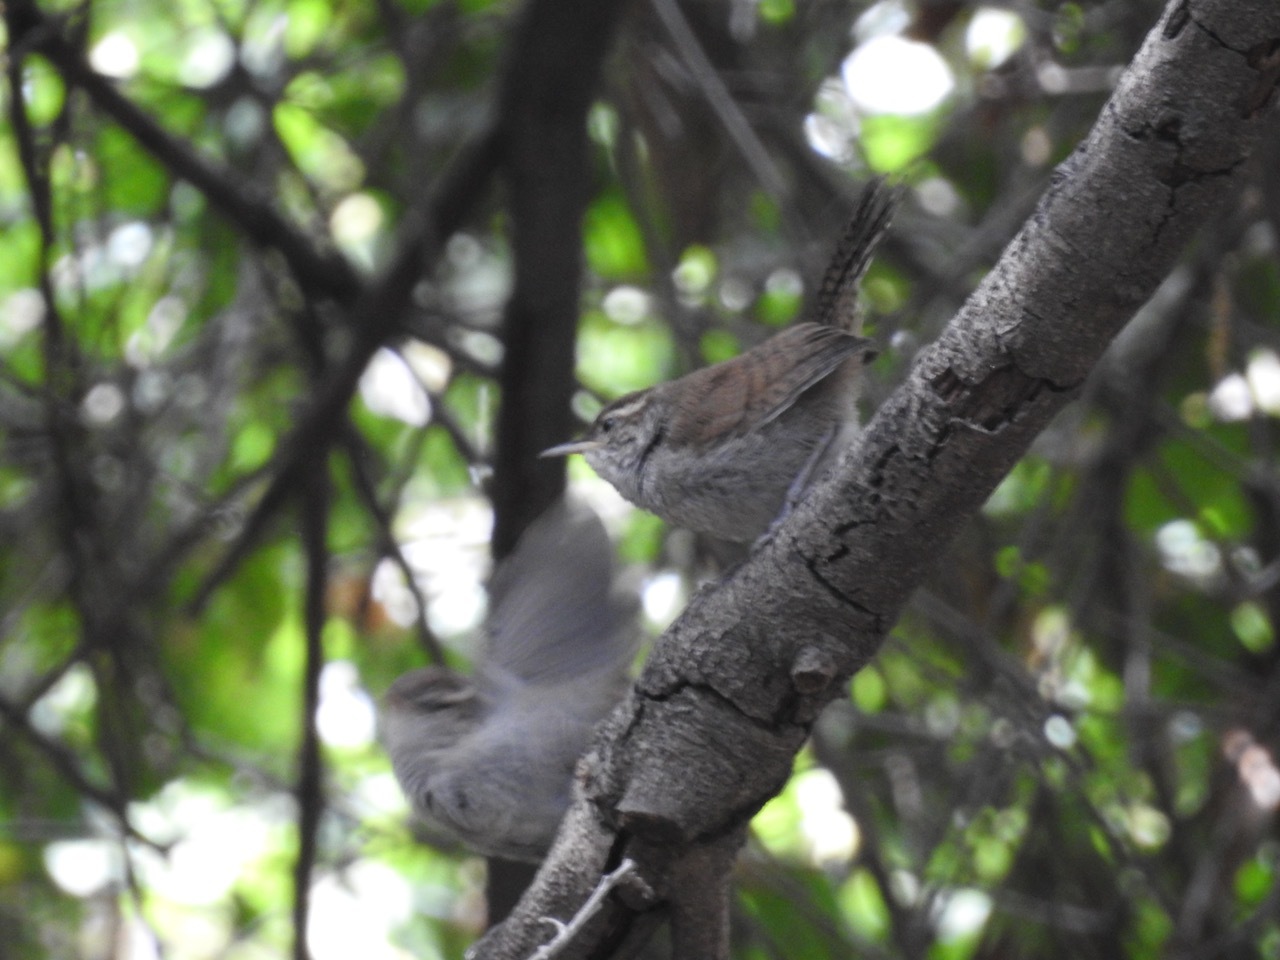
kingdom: Animalia
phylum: Chordata
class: Aves
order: Passeriformes
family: Troglodytidae
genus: Thryomanes
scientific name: Thryomanes bewickii
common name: Bewick's wren
